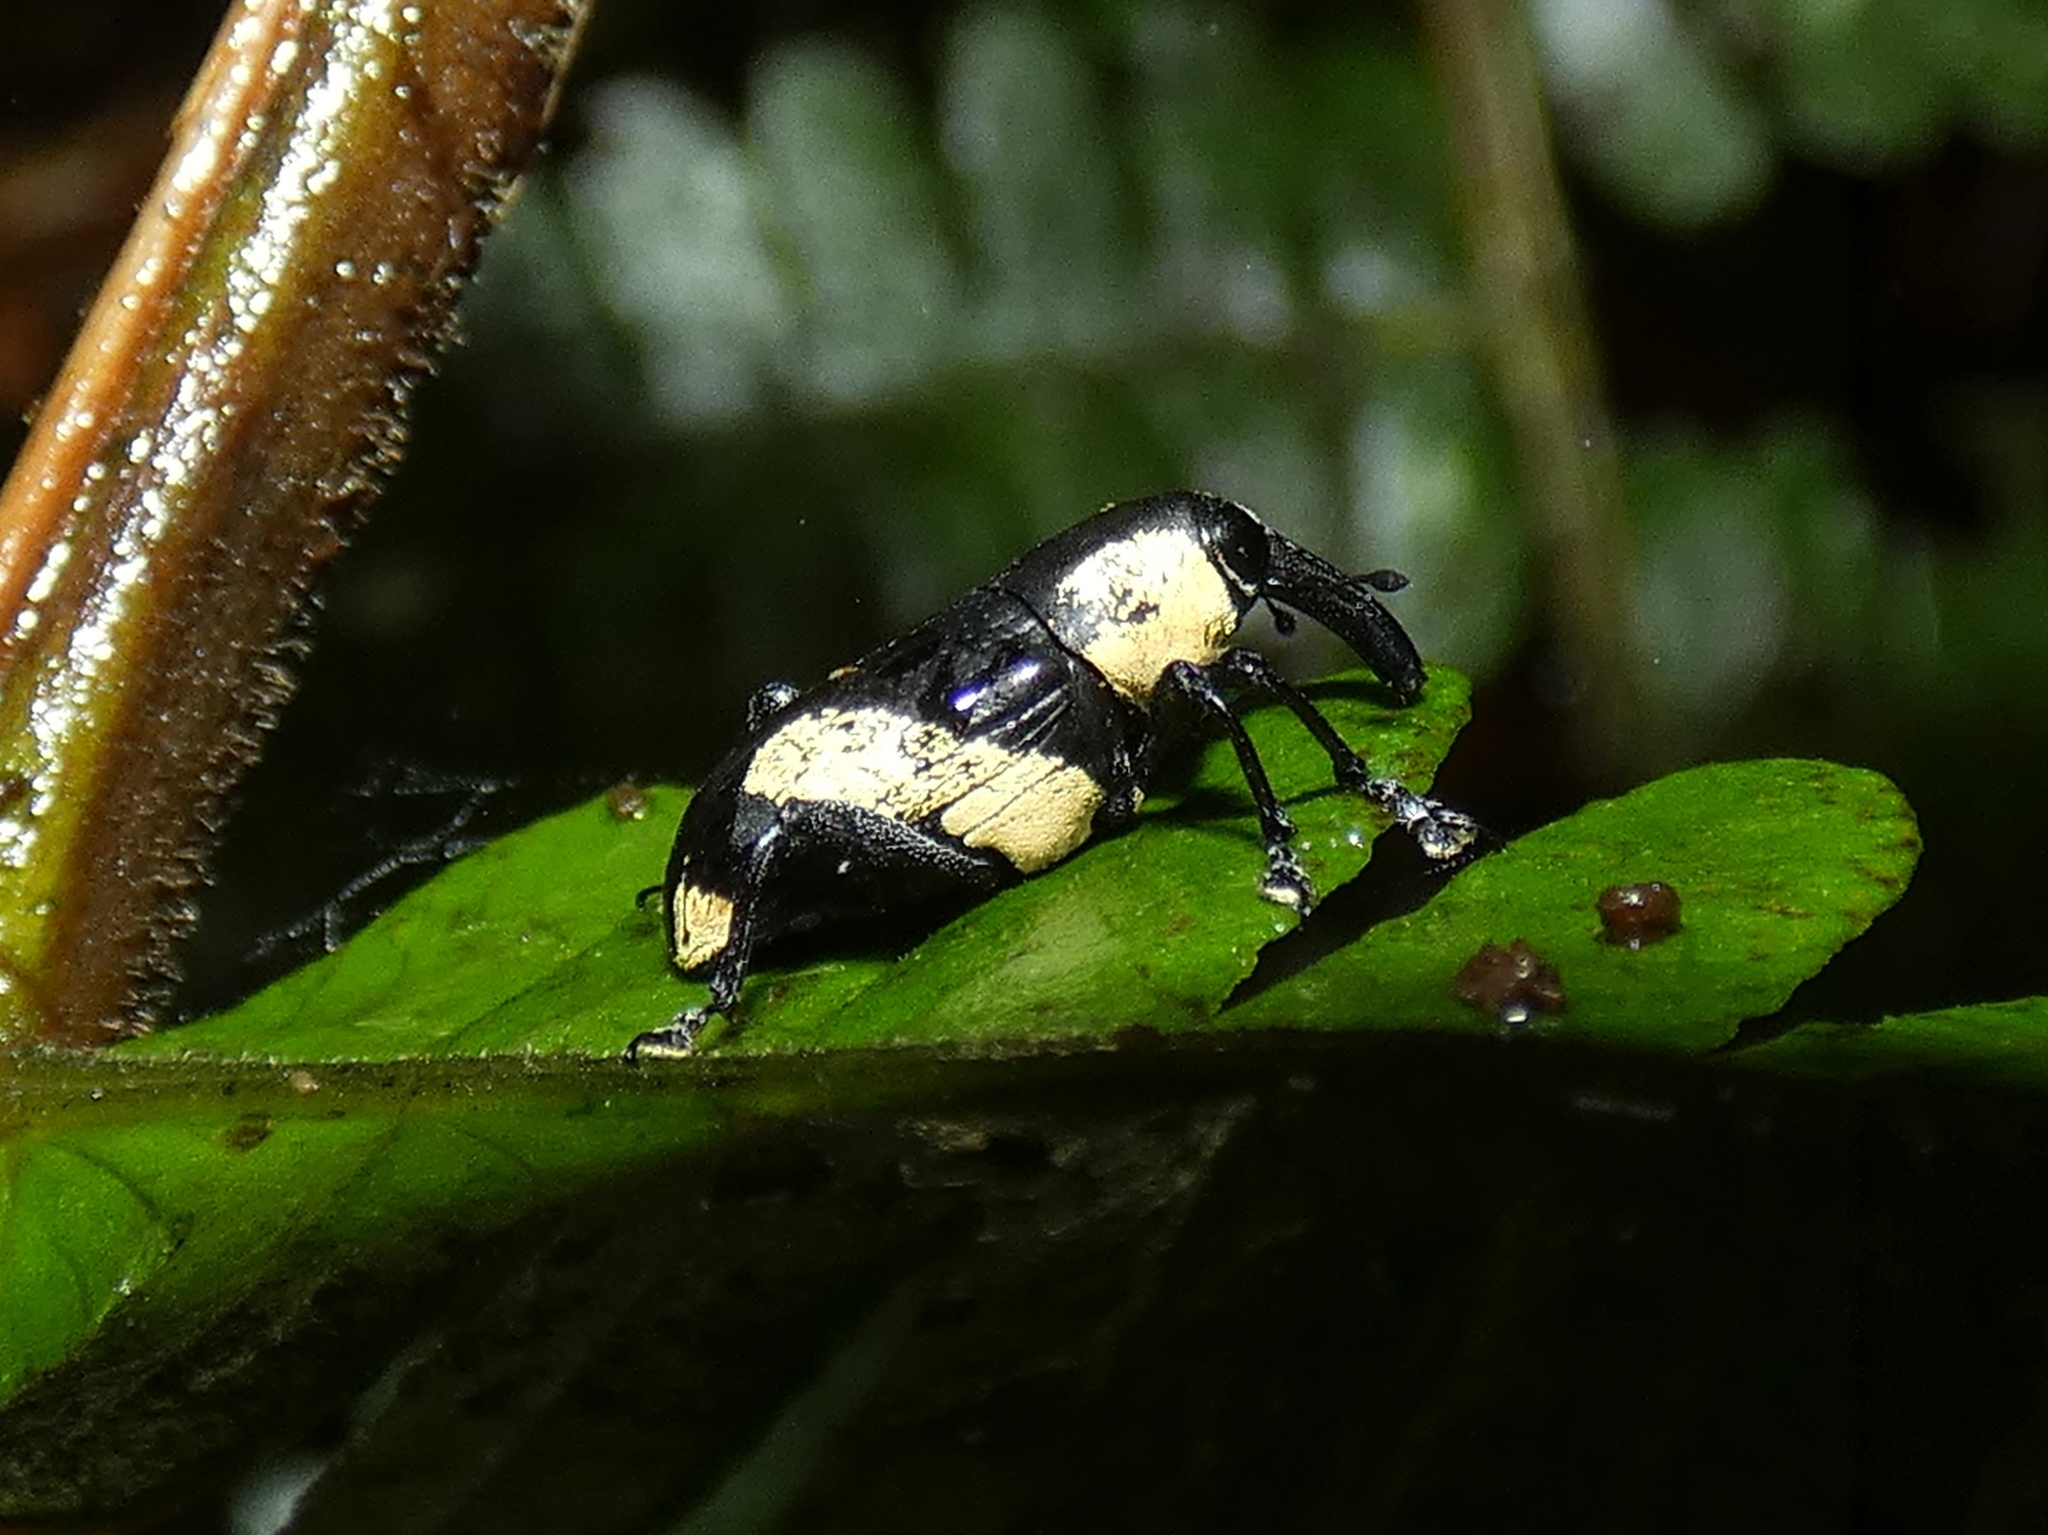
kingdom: Animalia
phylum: Arthropoda
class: Insecta
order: Coleoptera
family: Curculionidae
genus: Peridinetus
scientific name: Peridinetus cretaceus
